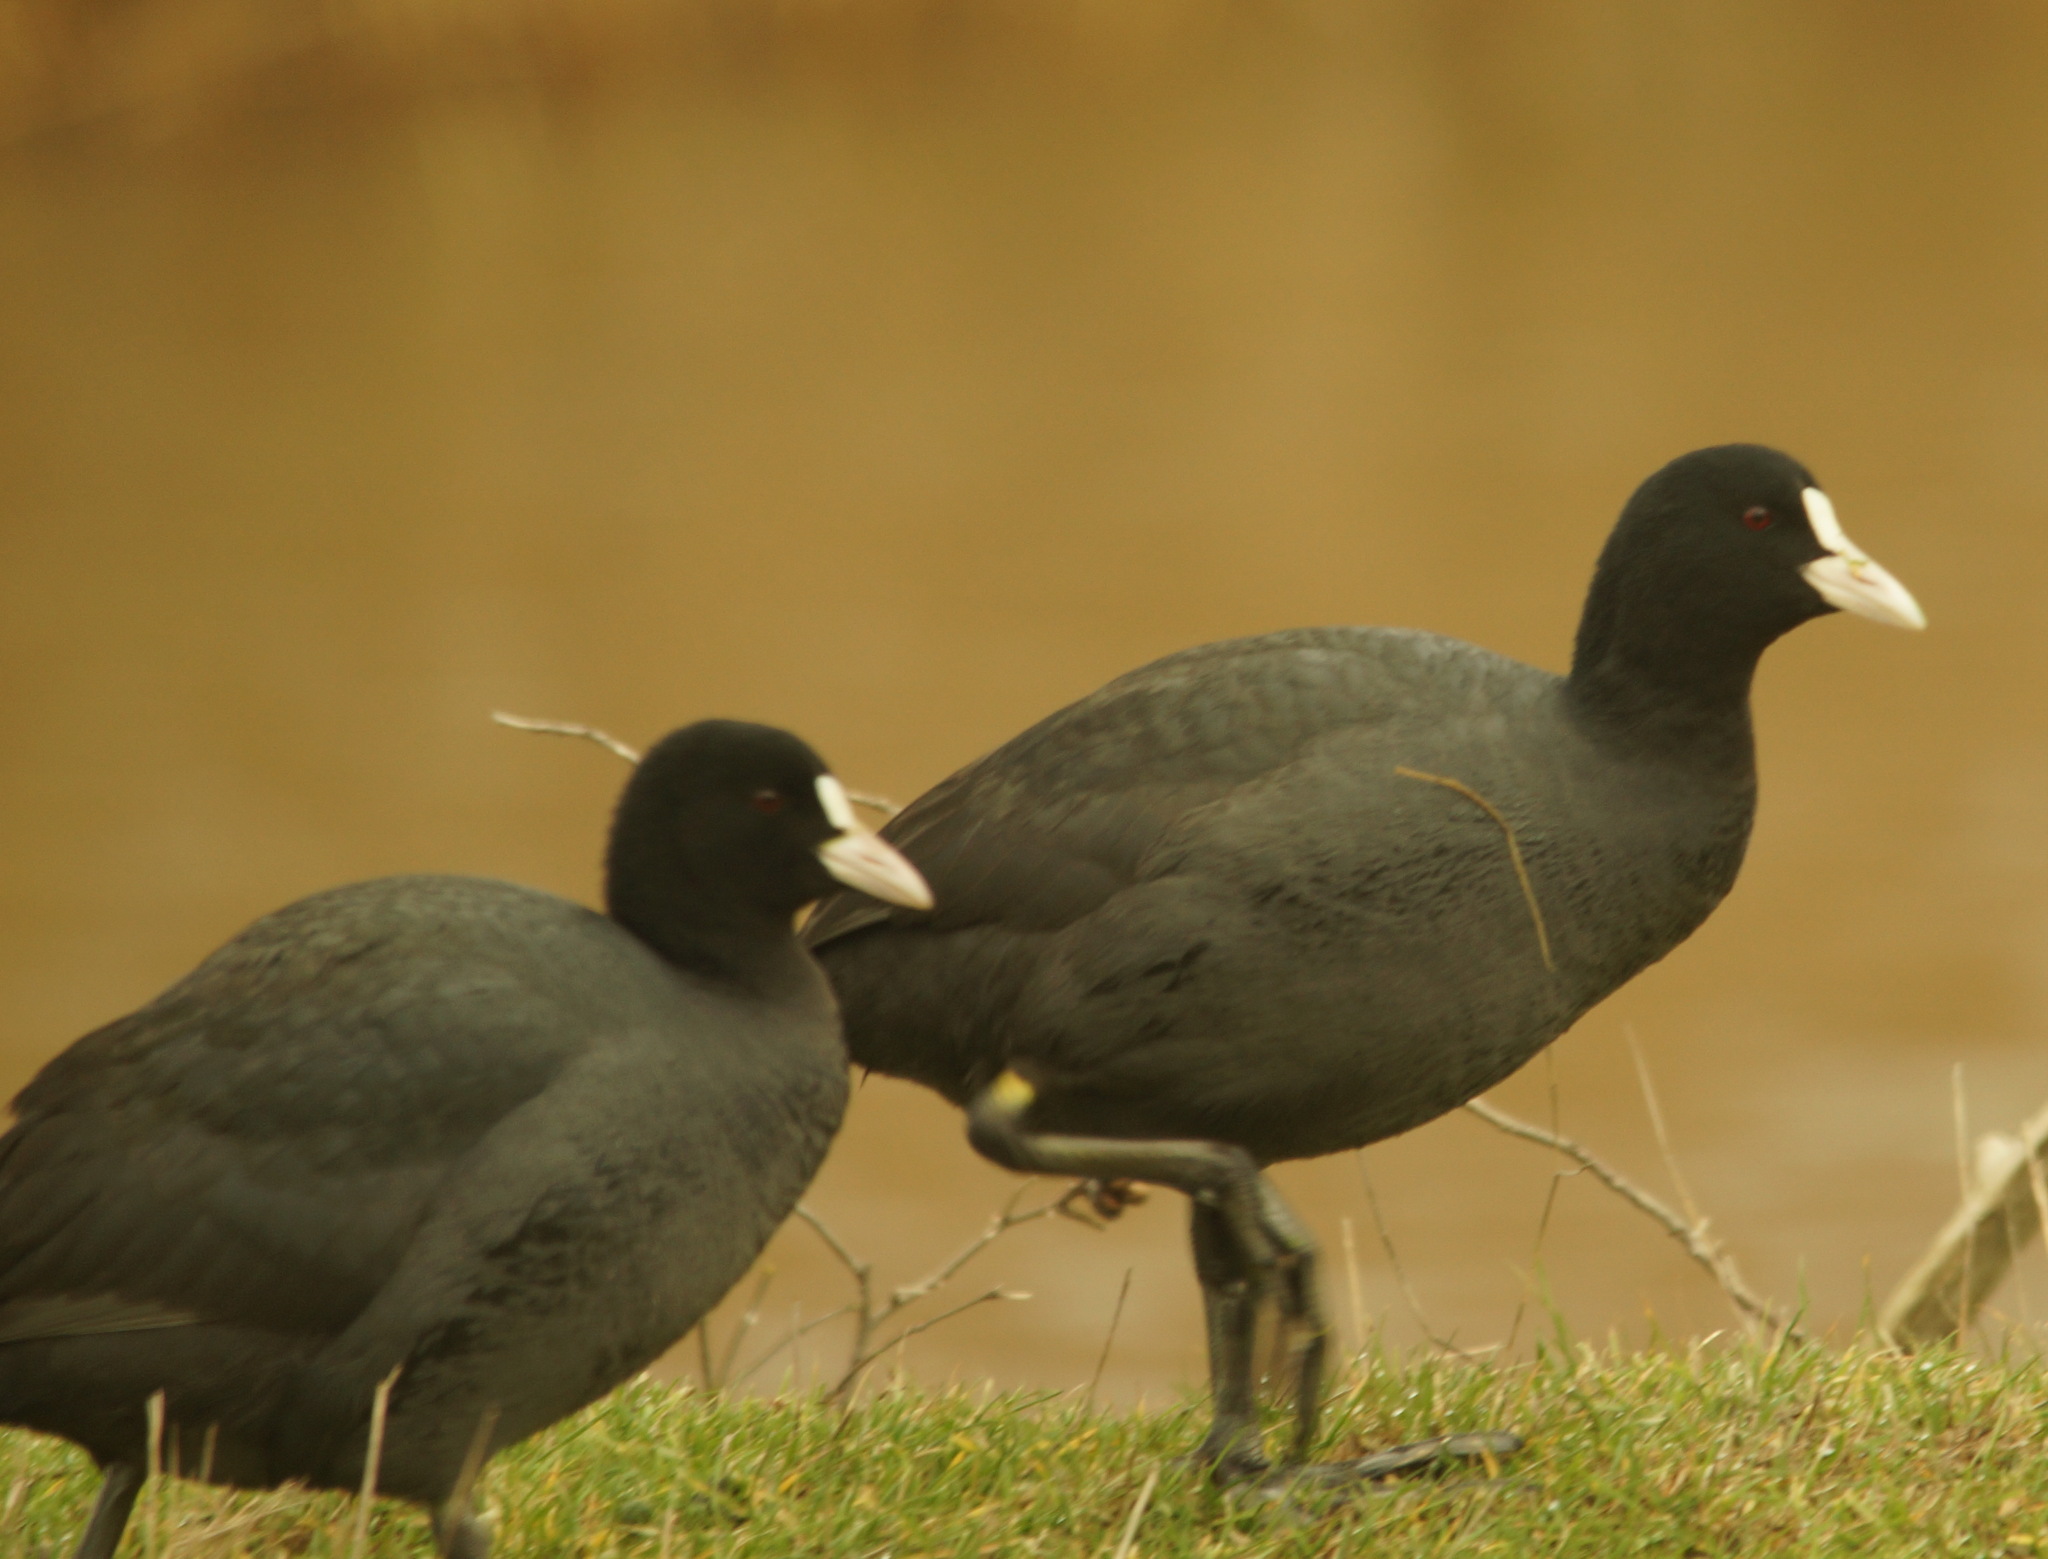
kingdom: Animalia
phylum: Chordata
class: Aves
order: Gruiformes
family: Rallidae
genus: Fulica
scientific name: Fulica atra
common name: Eurasian coot
